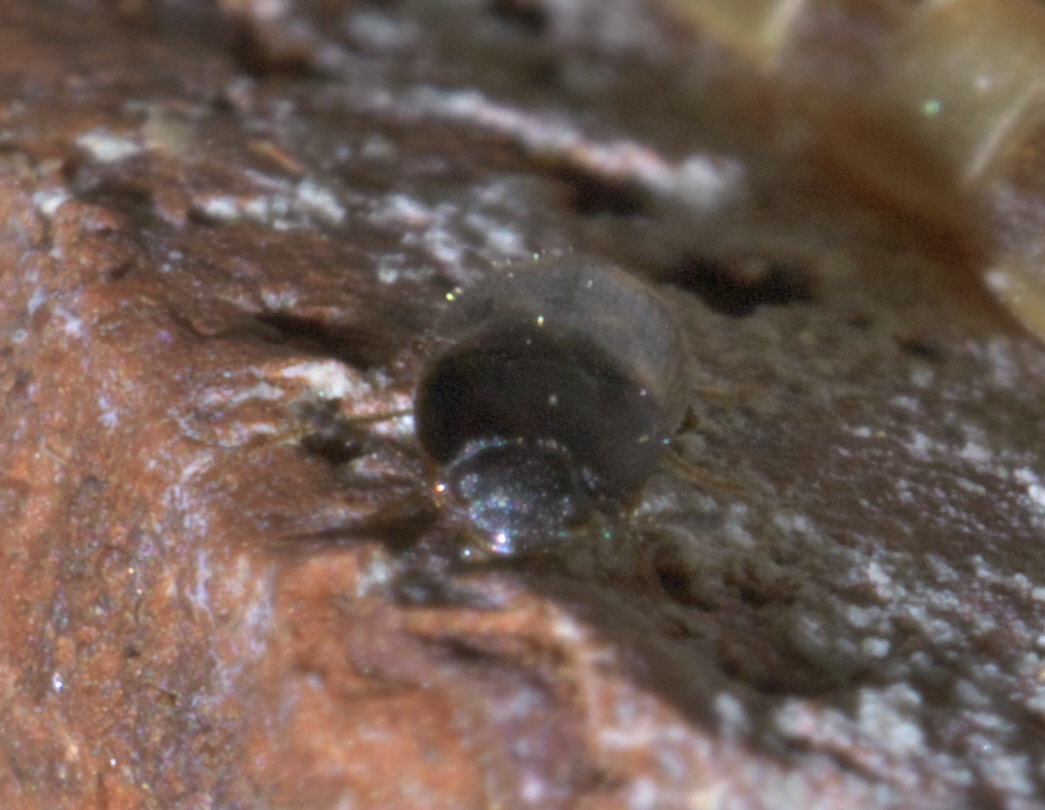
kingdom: Animalia
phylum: Arthropoda
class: Insecta
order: Coleoptera
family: Mycetophagidae
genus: Litargus
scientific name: Litargus sexpunctatus
